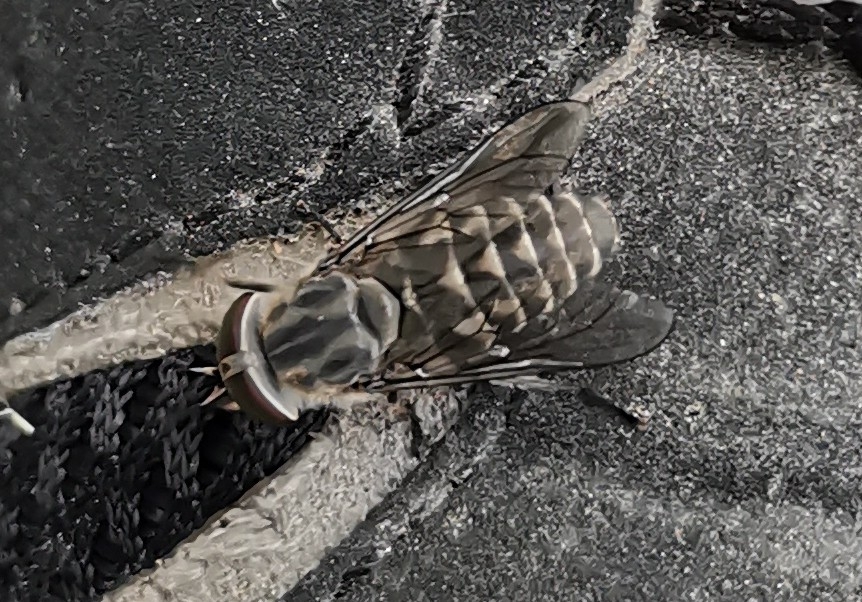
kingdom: Animalia
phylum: Arthropoda
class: Insecta
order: Diptera
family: Tabanidae
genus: Tabanus
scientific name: Tabanus maculicornis
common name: Narrow-winged horsefly
